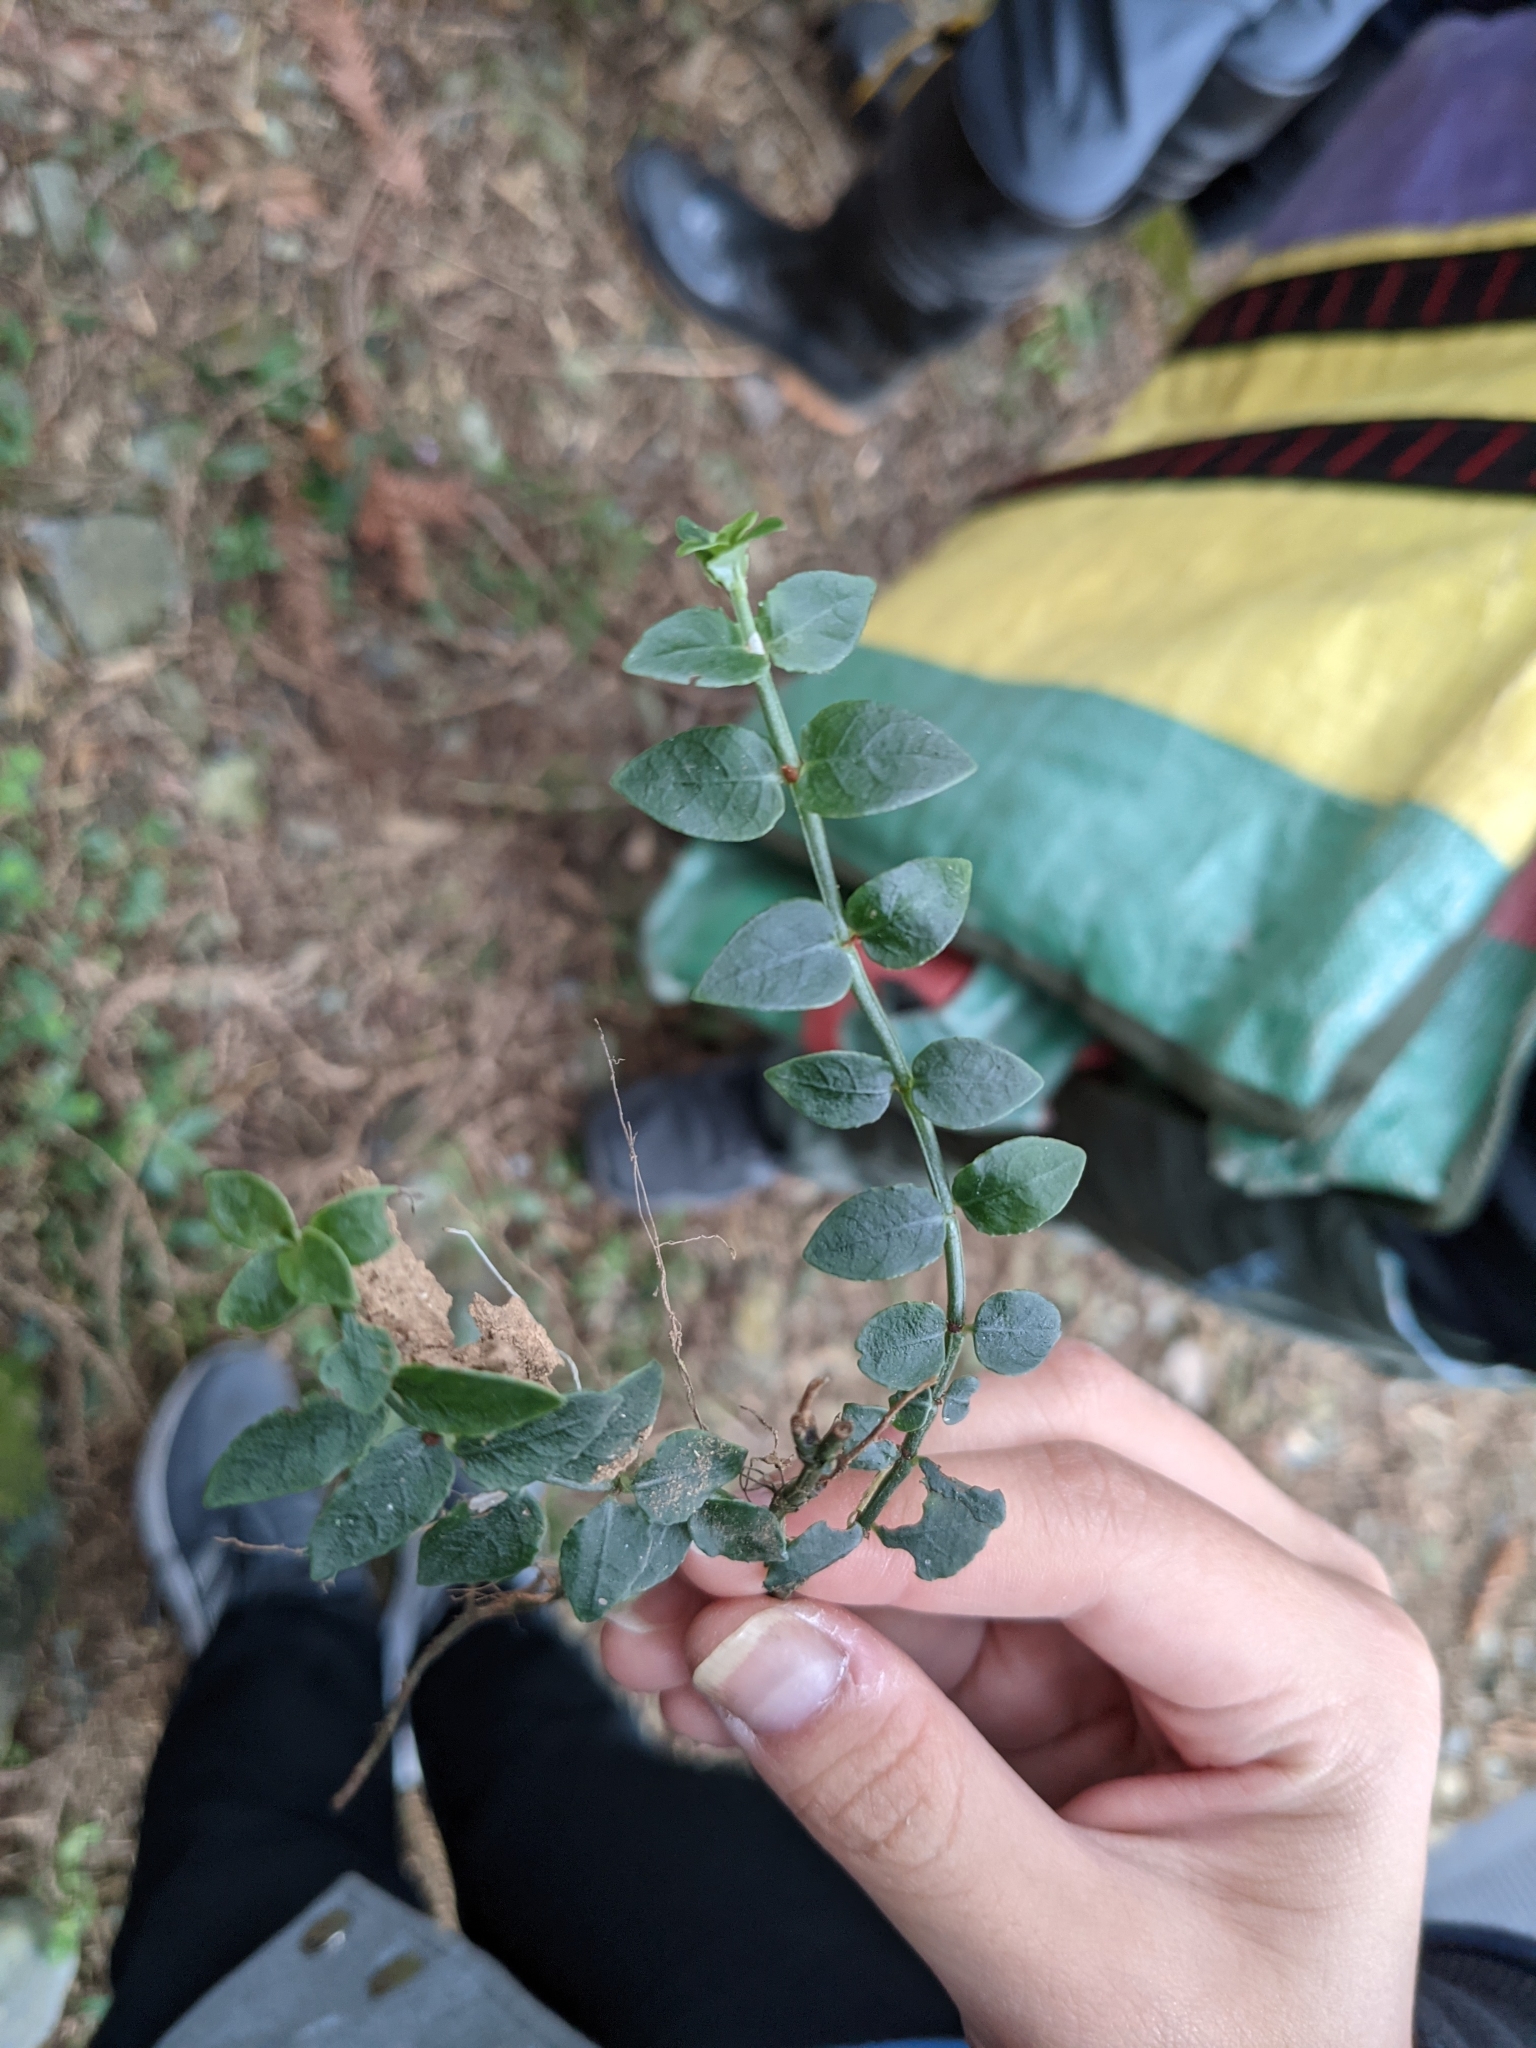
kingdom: Plantae
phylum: Tracheophyta
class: Magnoliopsida
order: Gentianales
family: Rubiaceae
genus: Psychotria
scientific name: Psychotria serpens
